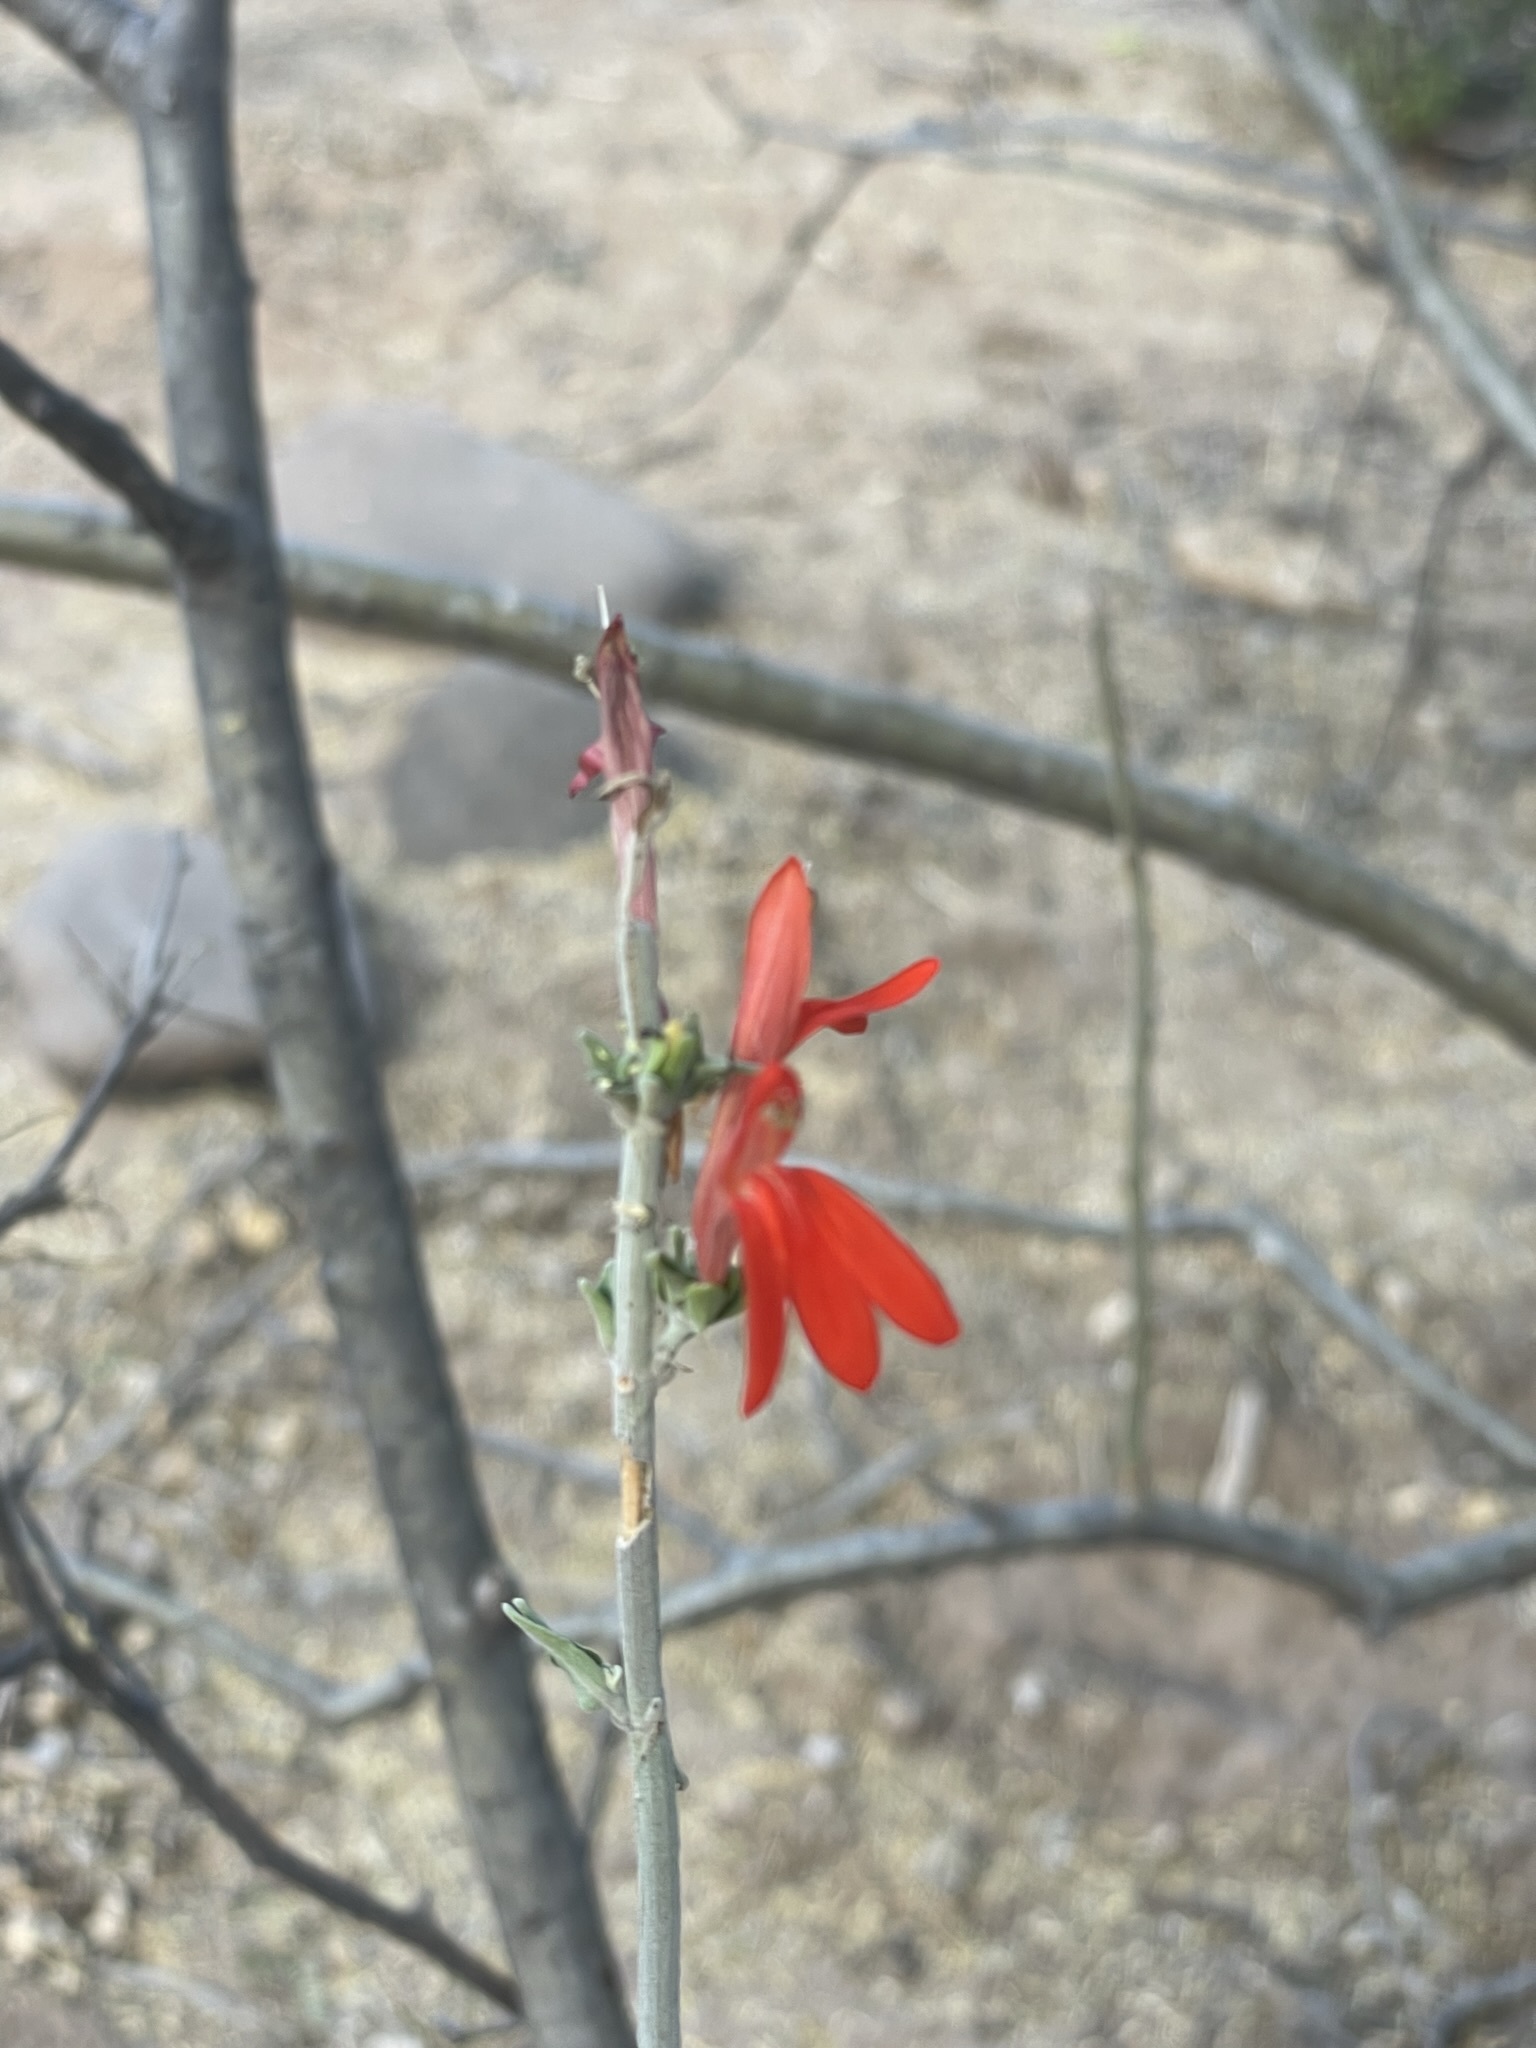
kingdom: Plantae
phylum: Tracheophyta
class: Magnoliopsida
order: Lamiales
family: Acanthaceae
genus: Justicia
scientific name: Justicia palmeri
